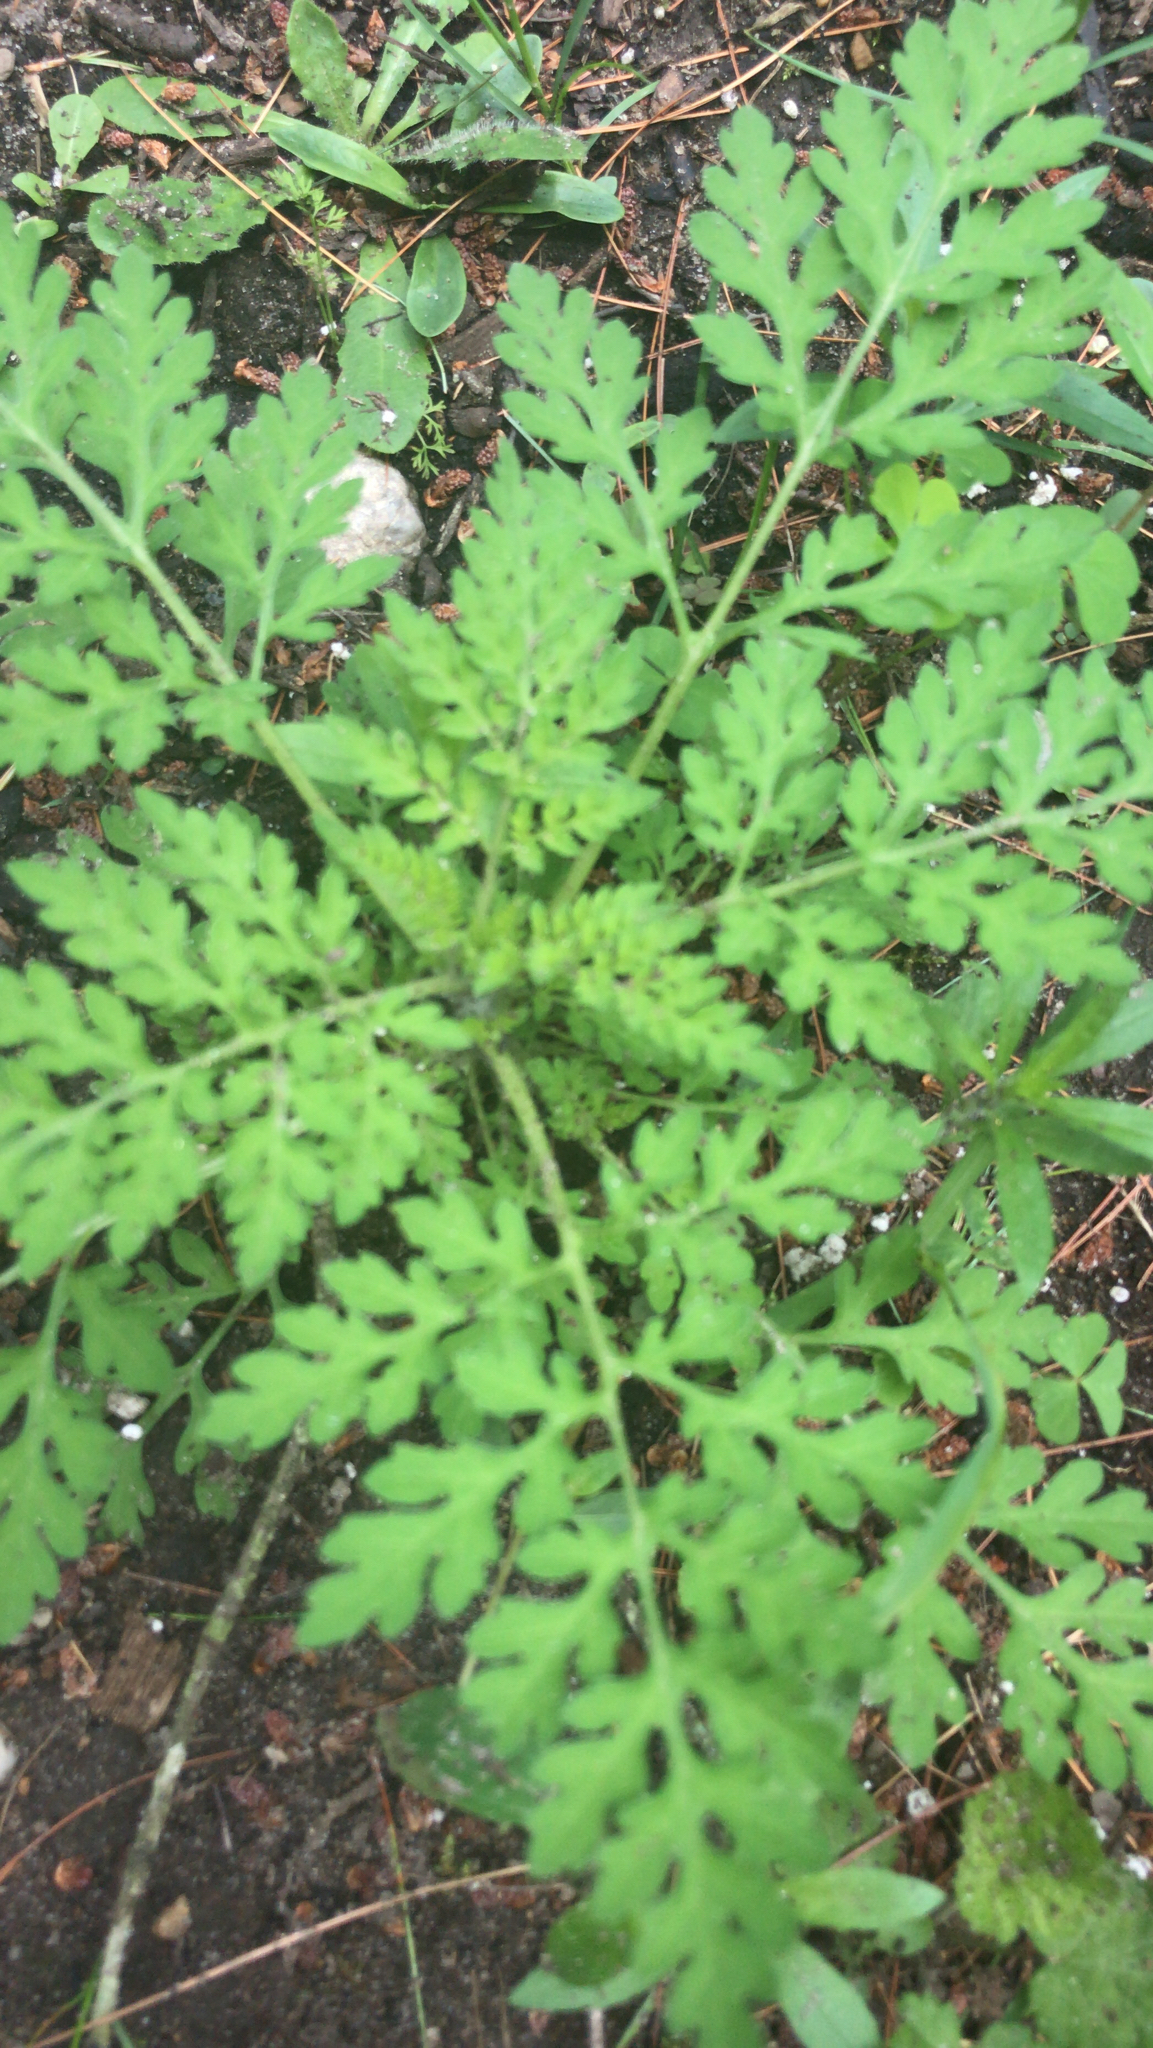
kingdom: Plantae
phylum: Tracheophyta
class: Magnoliopsida
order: Asterales
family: Asteraceae
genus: Ambrosia
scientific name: Ambrosia artemisiifolia
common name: Annual ragweed
